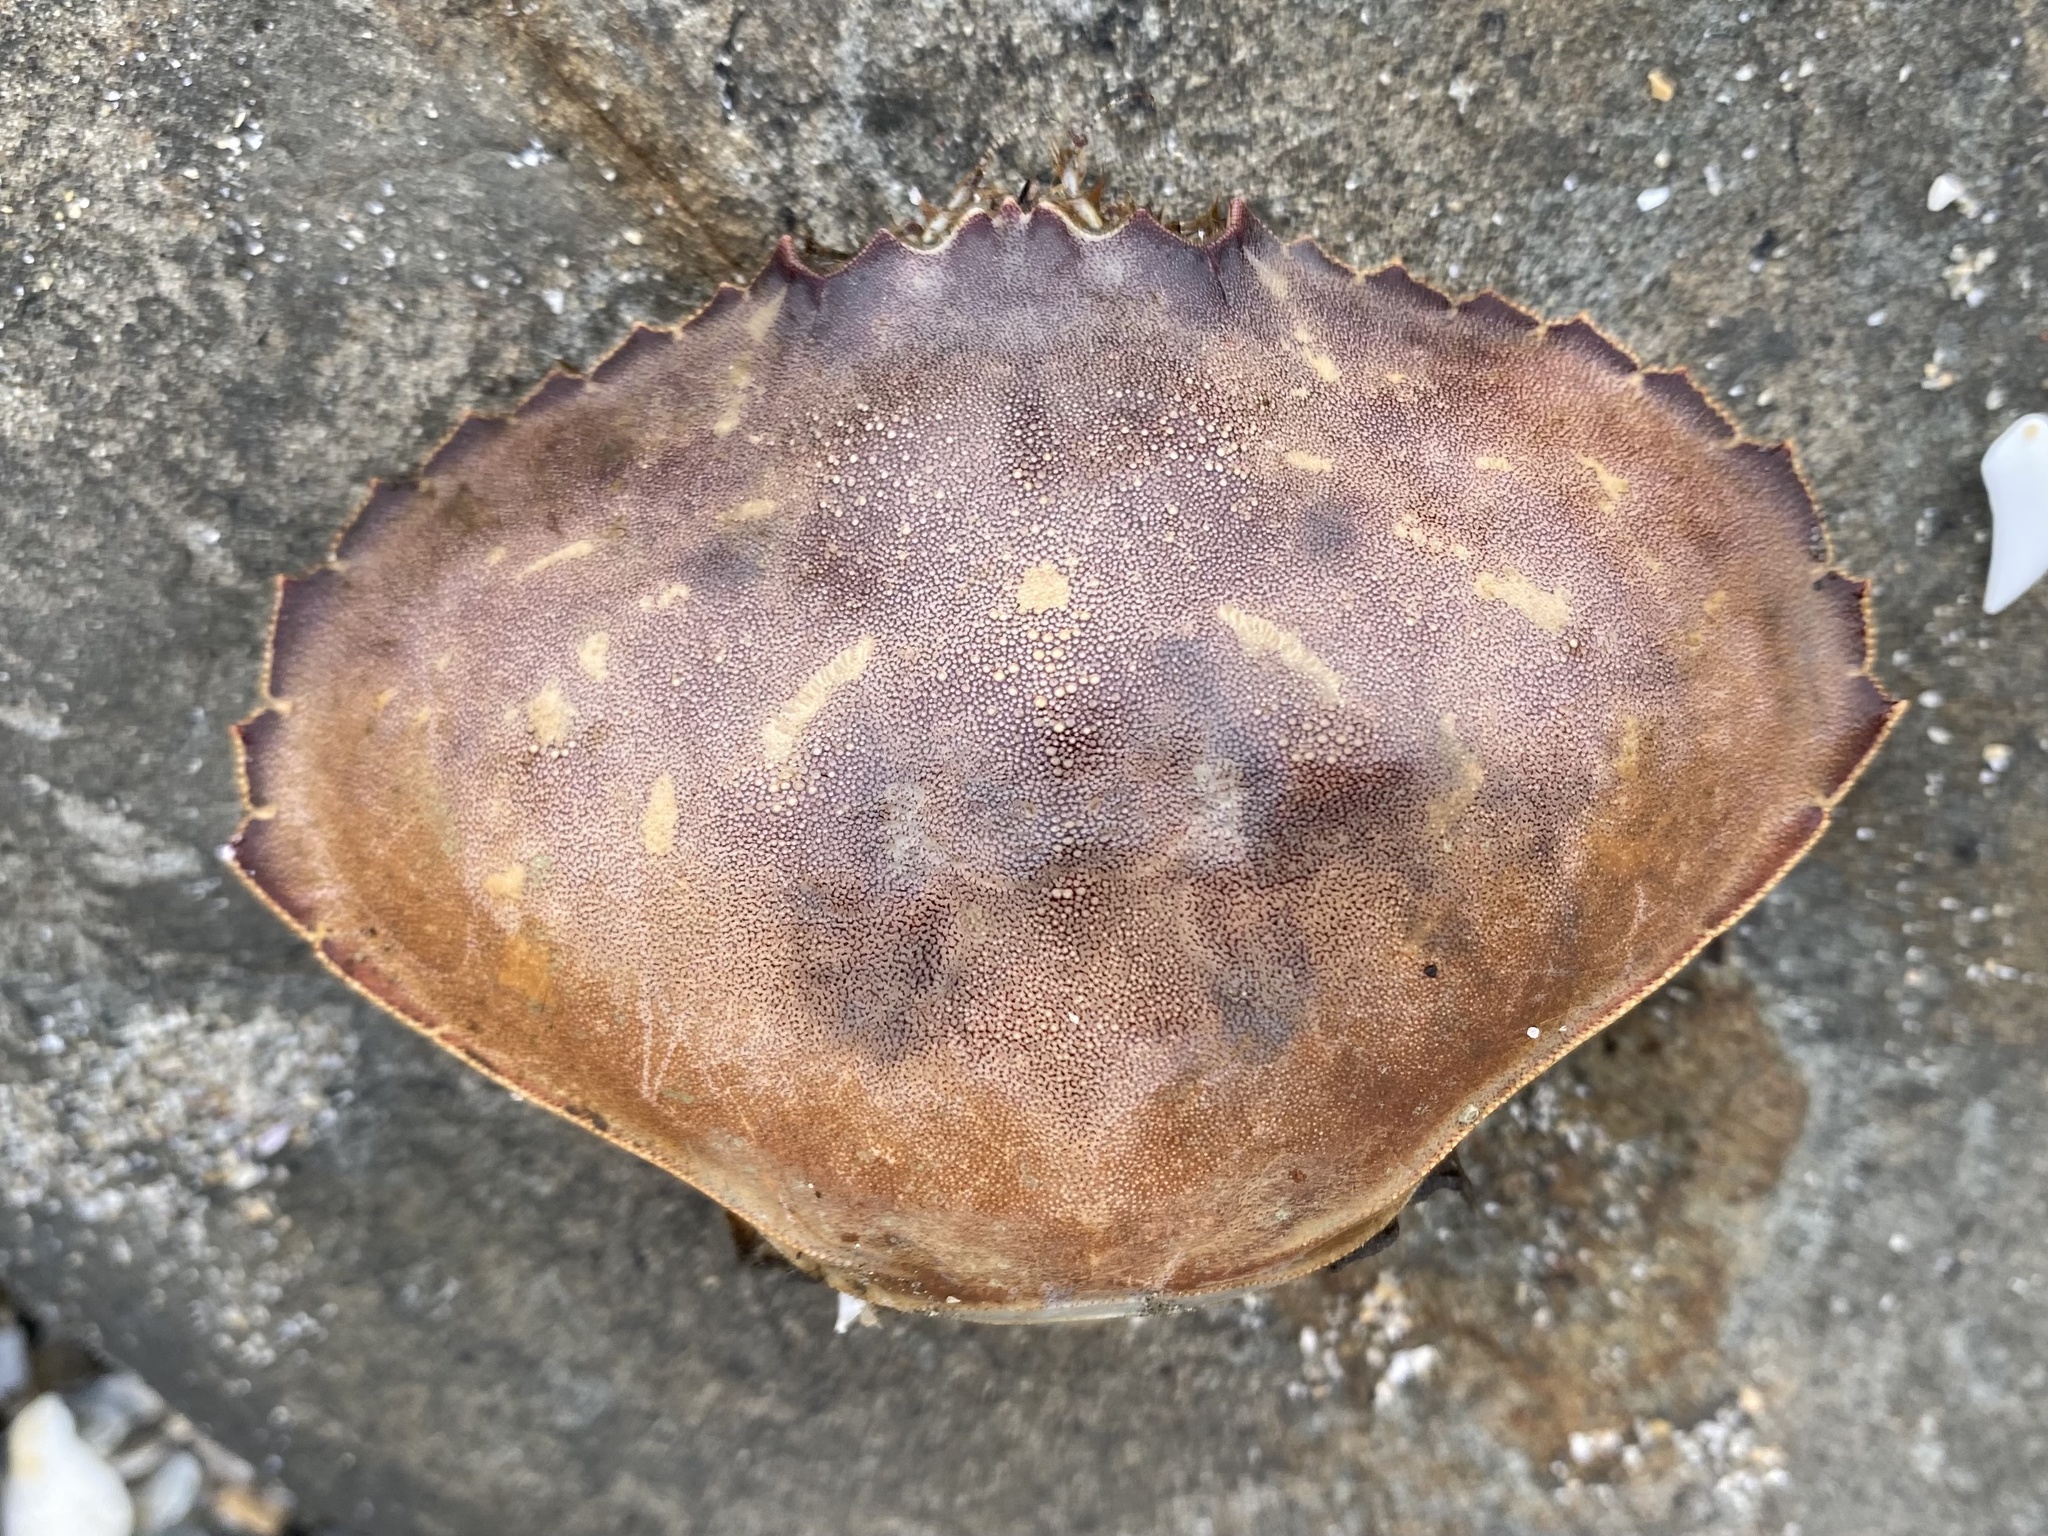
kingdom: Animalia
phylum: Arthropoda
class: Malacostraca
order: Decapoda
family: Cancridae
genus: Metacarcinus
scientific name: Metacarcinus gracilis
